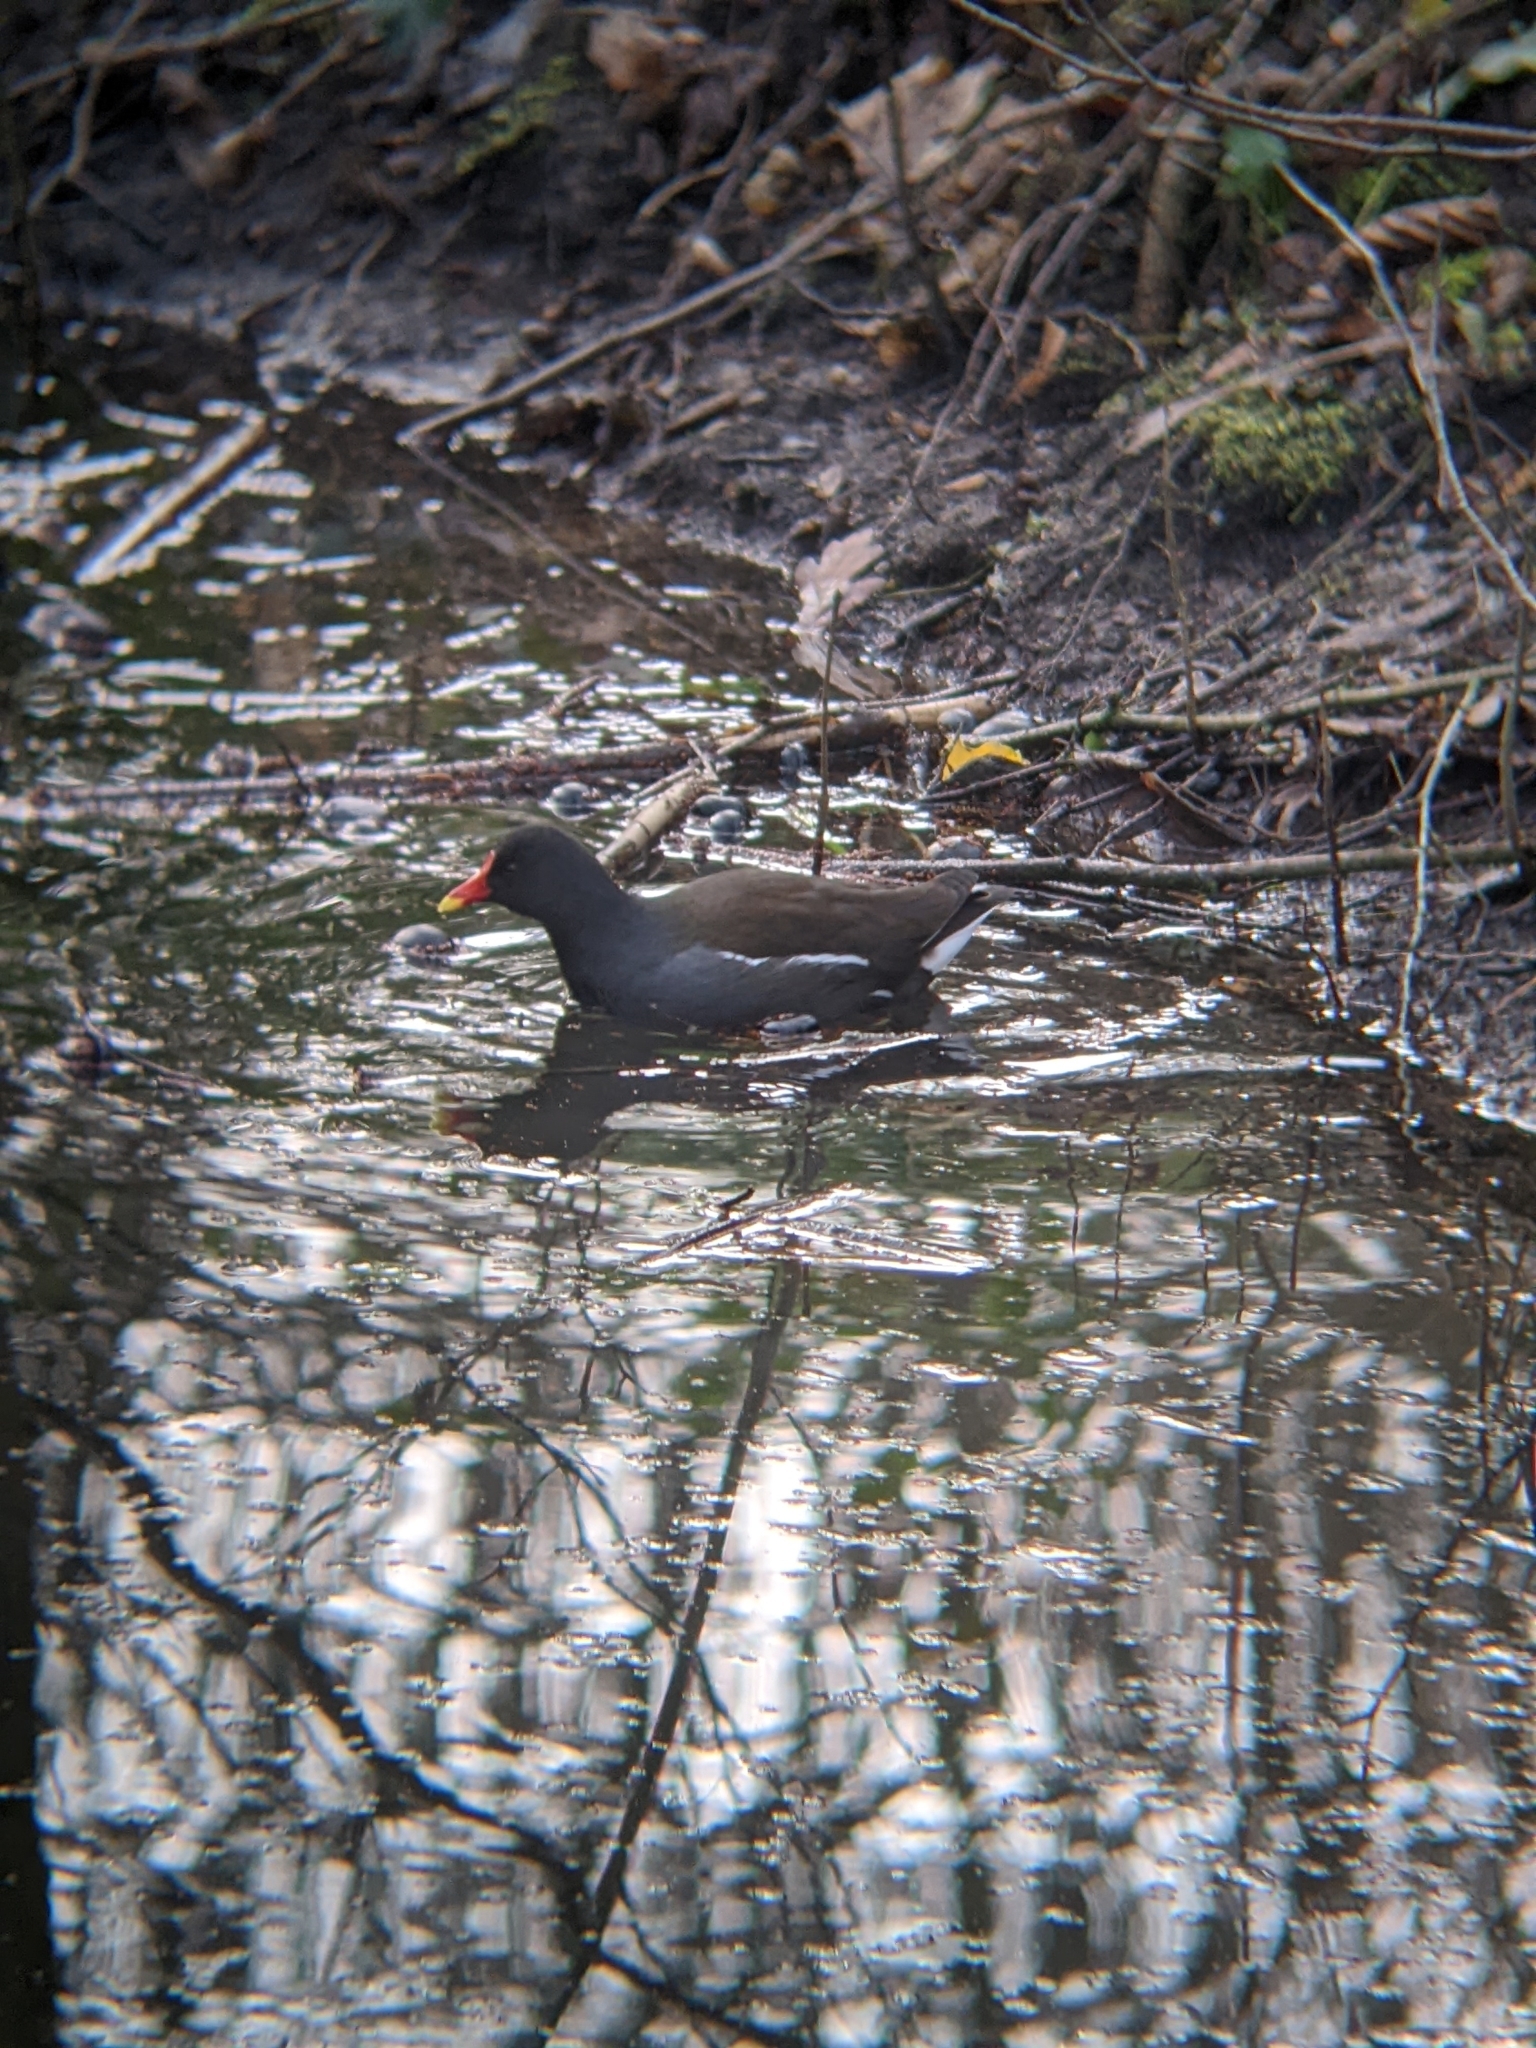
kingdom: Animalia
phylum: Chordata
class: Aves
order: Gruiformes
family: Rallidae
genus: Gallinula
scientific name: Gallinula chloropus
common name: Common moorhen
